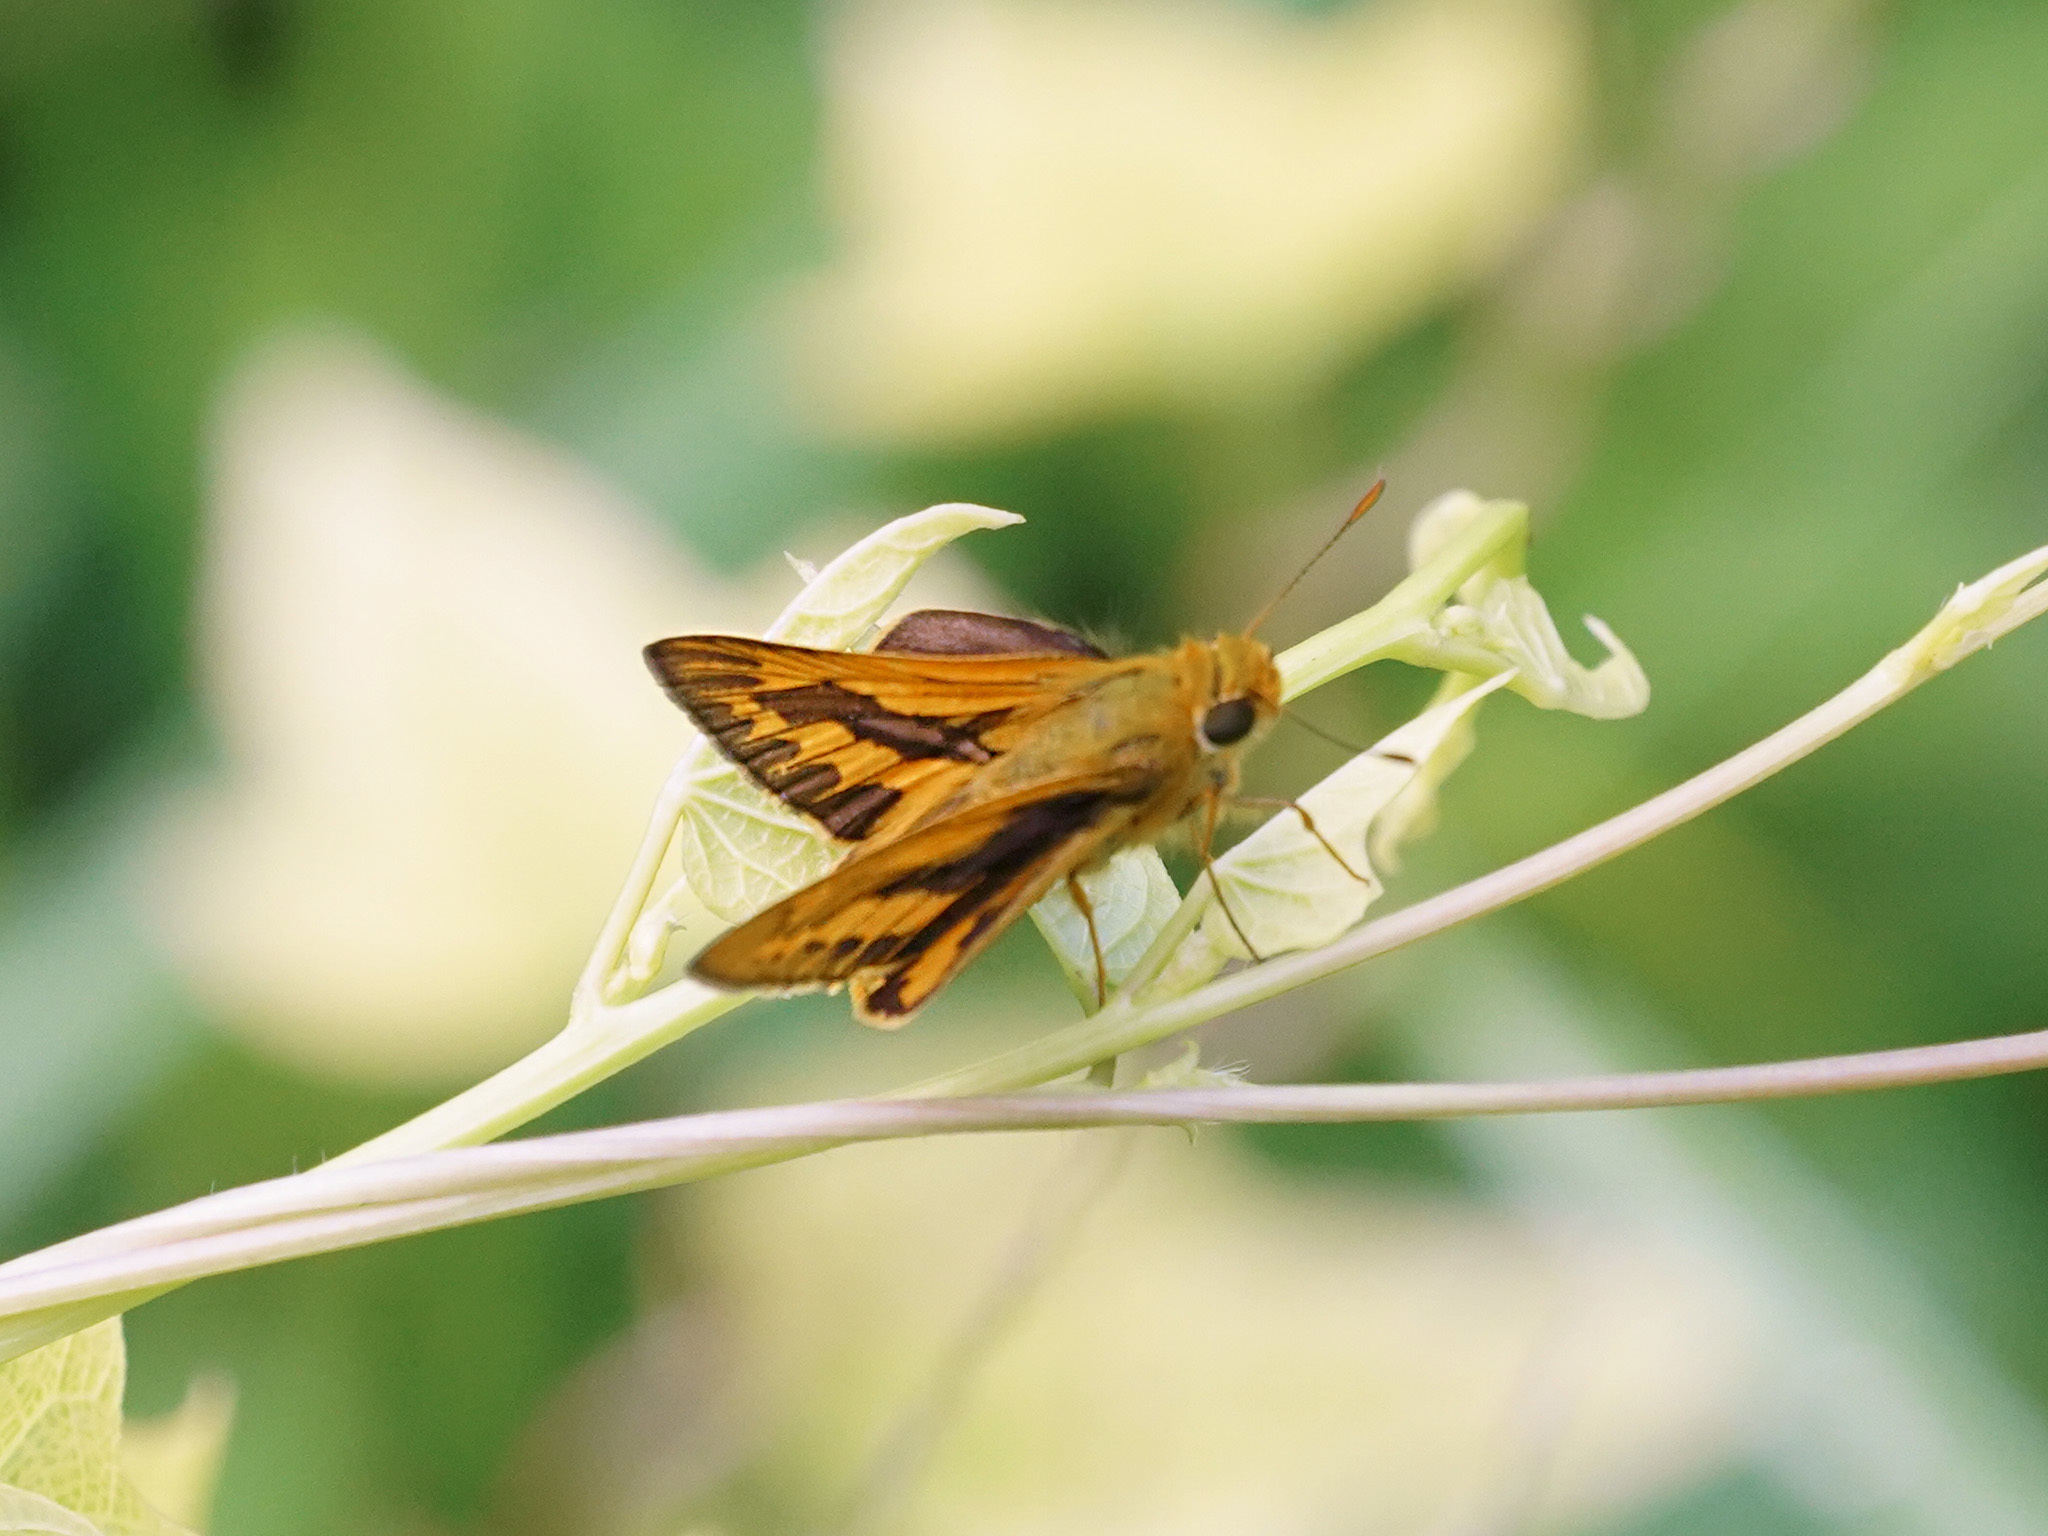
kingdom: Animalia
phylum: Arthropoda
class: Insecta
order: Lepidoptera
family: Hesperiidae
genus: Cephrenes
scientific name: Cephrenes trichopepla
